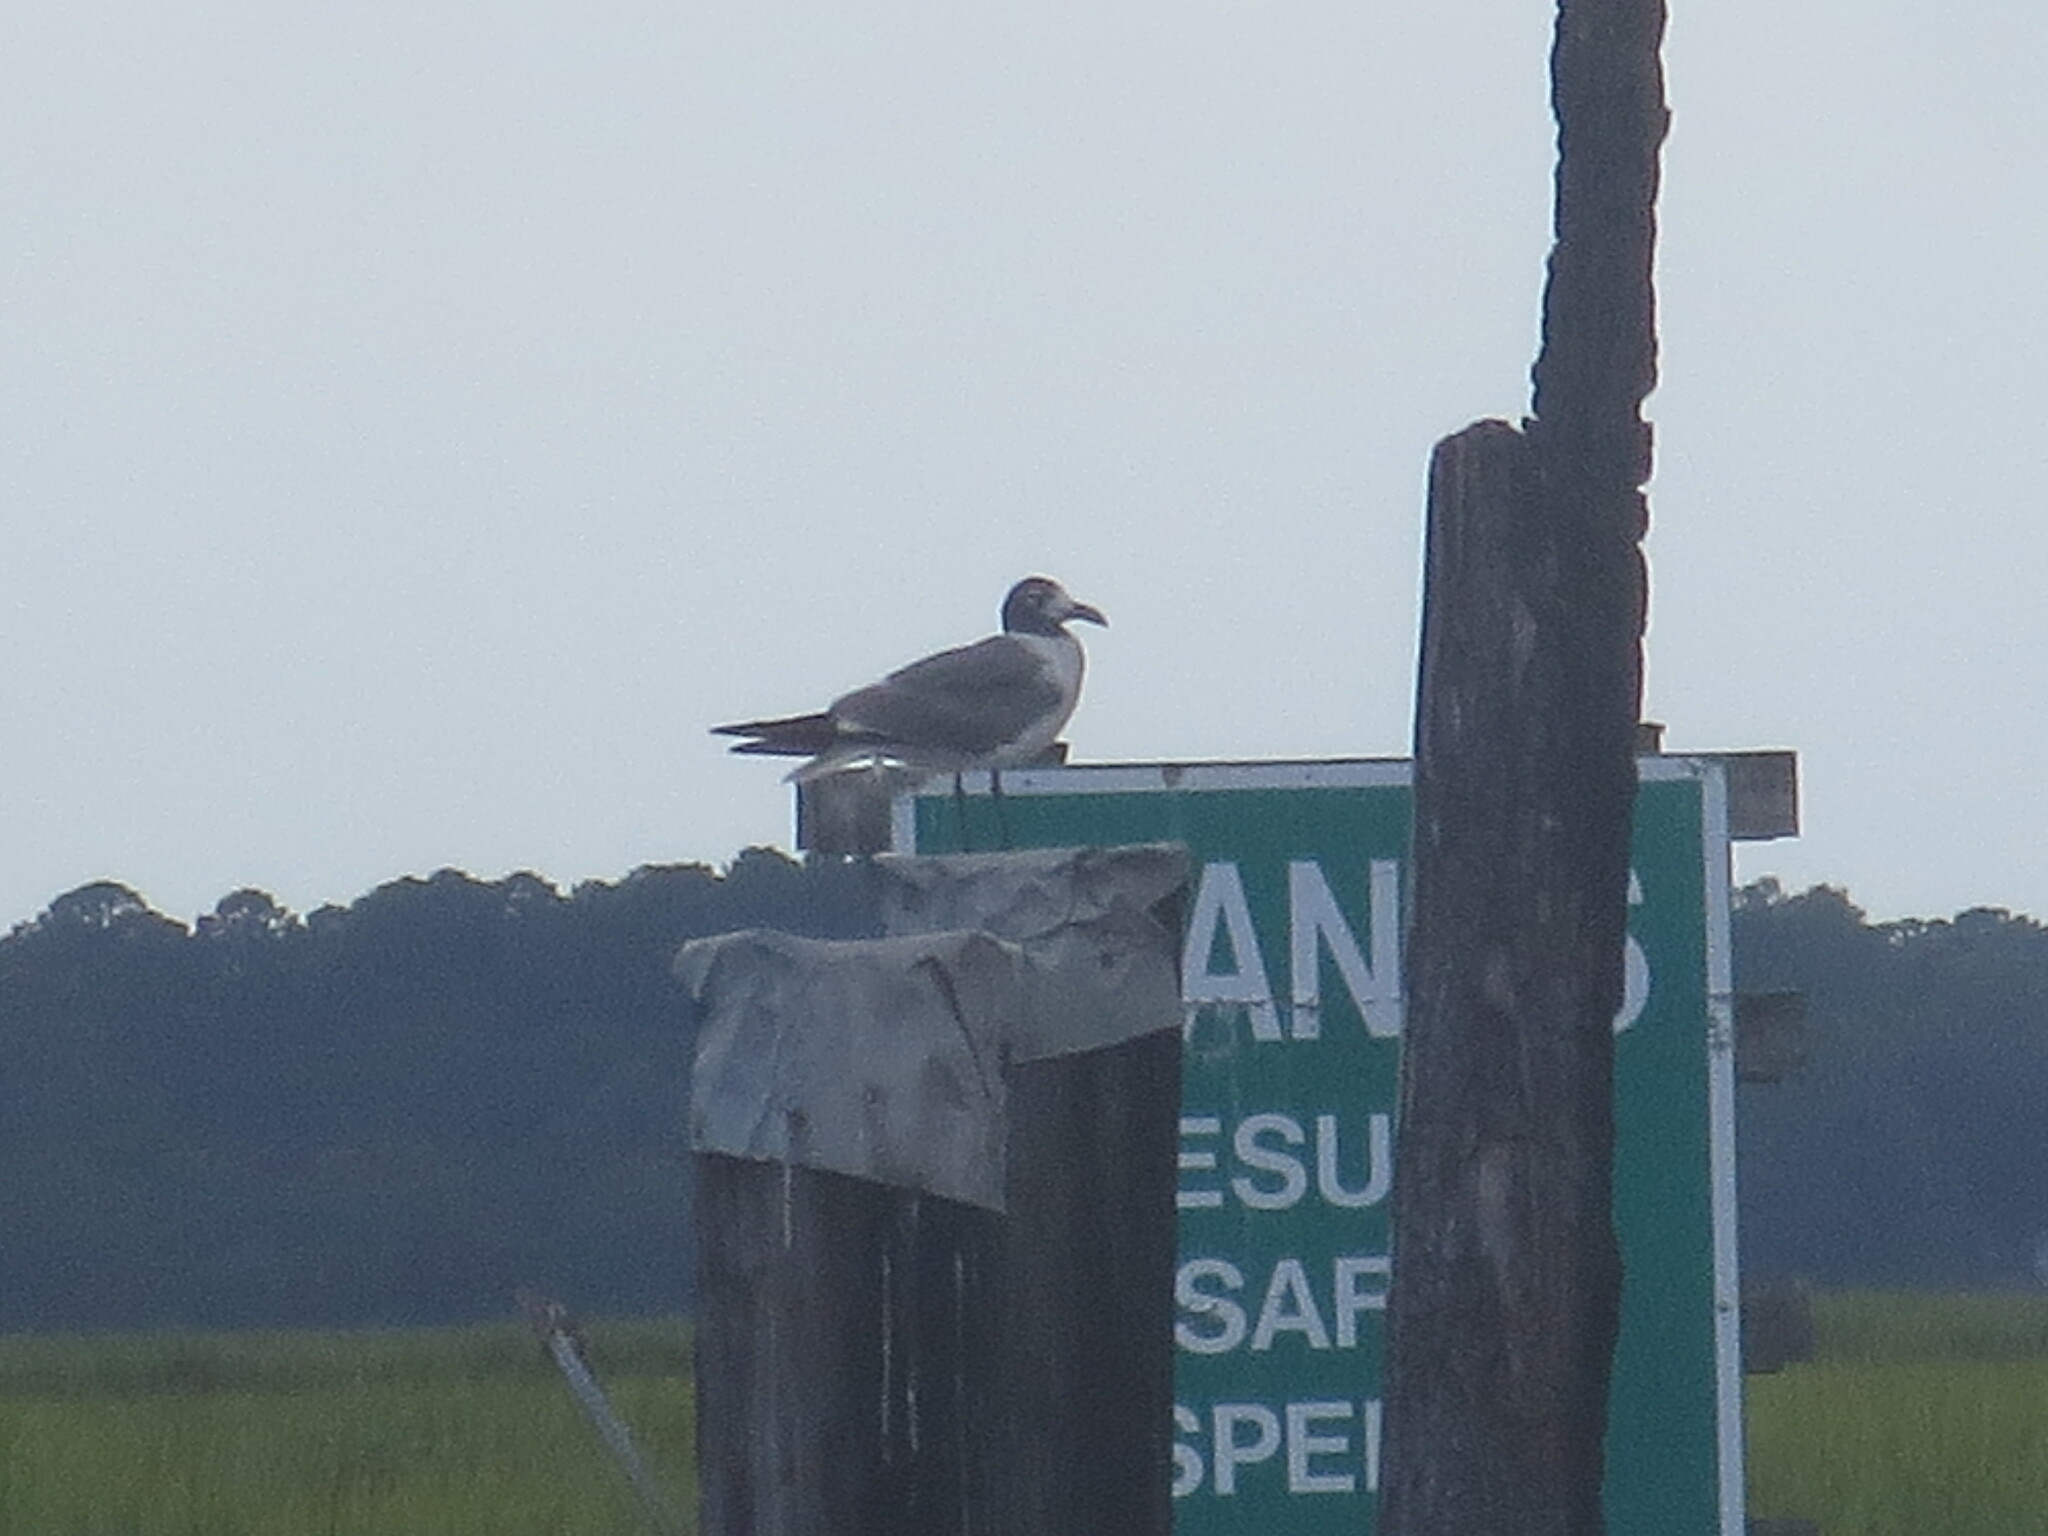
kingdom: Animalia
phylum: Chordata
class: Aves
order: Charadriiformes
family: Laridae
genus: Leucophaeus
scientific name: Leucophaeus atricilla
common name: Laughing gull
